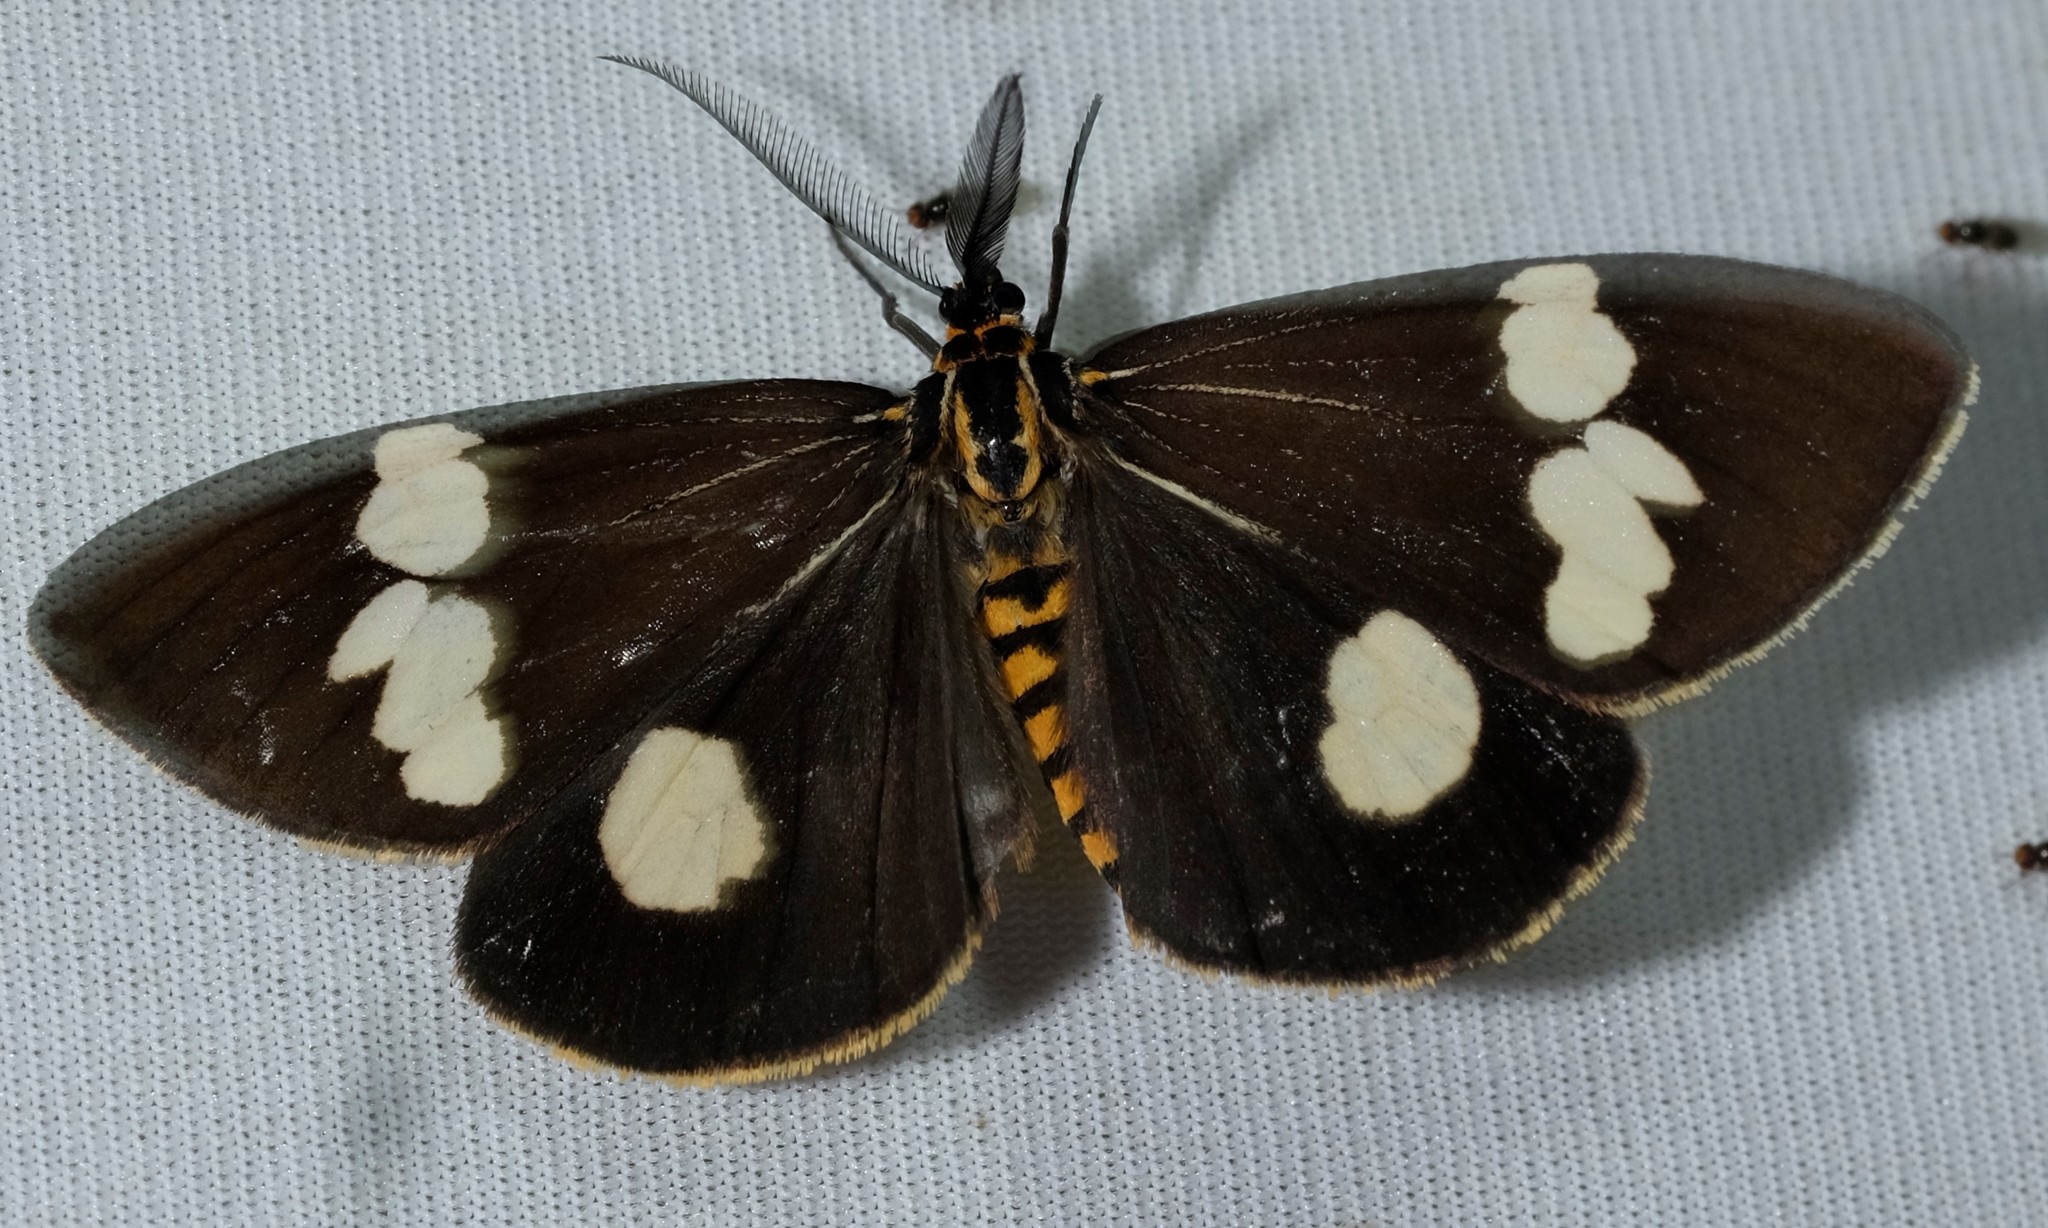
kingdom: Animalia
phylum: Arthropoda
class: Insecta
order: Lepidoptera
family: Erebidae
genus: Nyctemera
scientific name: Nyctemera amicus
